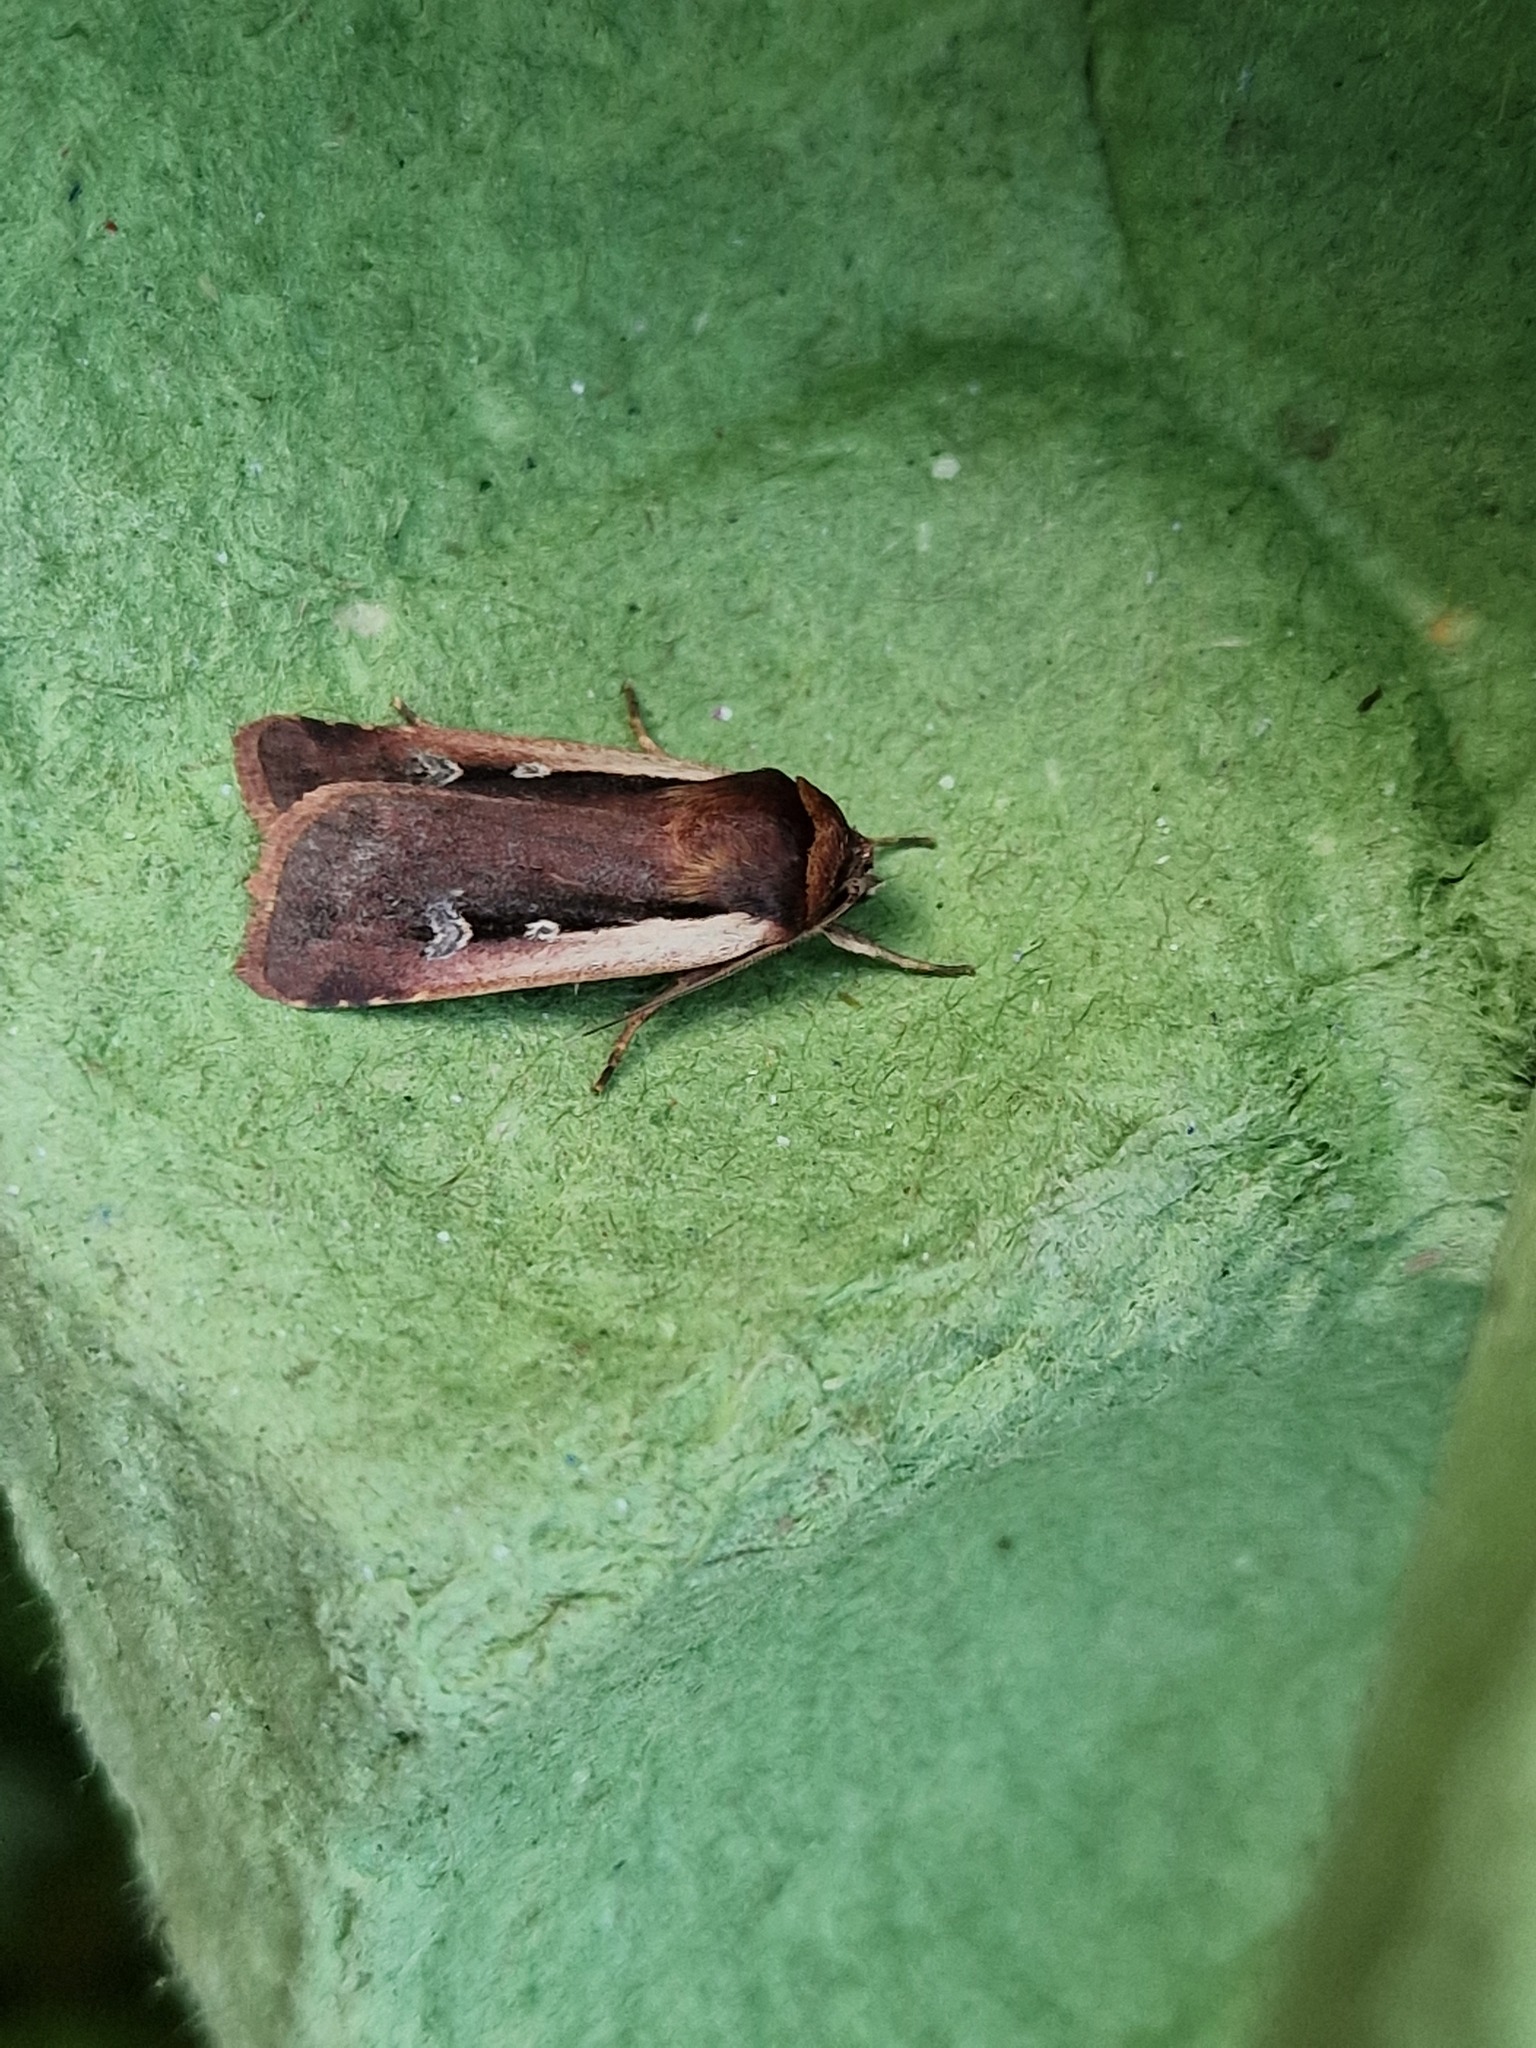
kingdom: Animalia
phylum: Arthropoda
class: Insecta
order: Lepidoptera
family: Noctuidae
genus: Ochropleura
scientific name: Ochropleura plecta
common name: Flame shoulder
